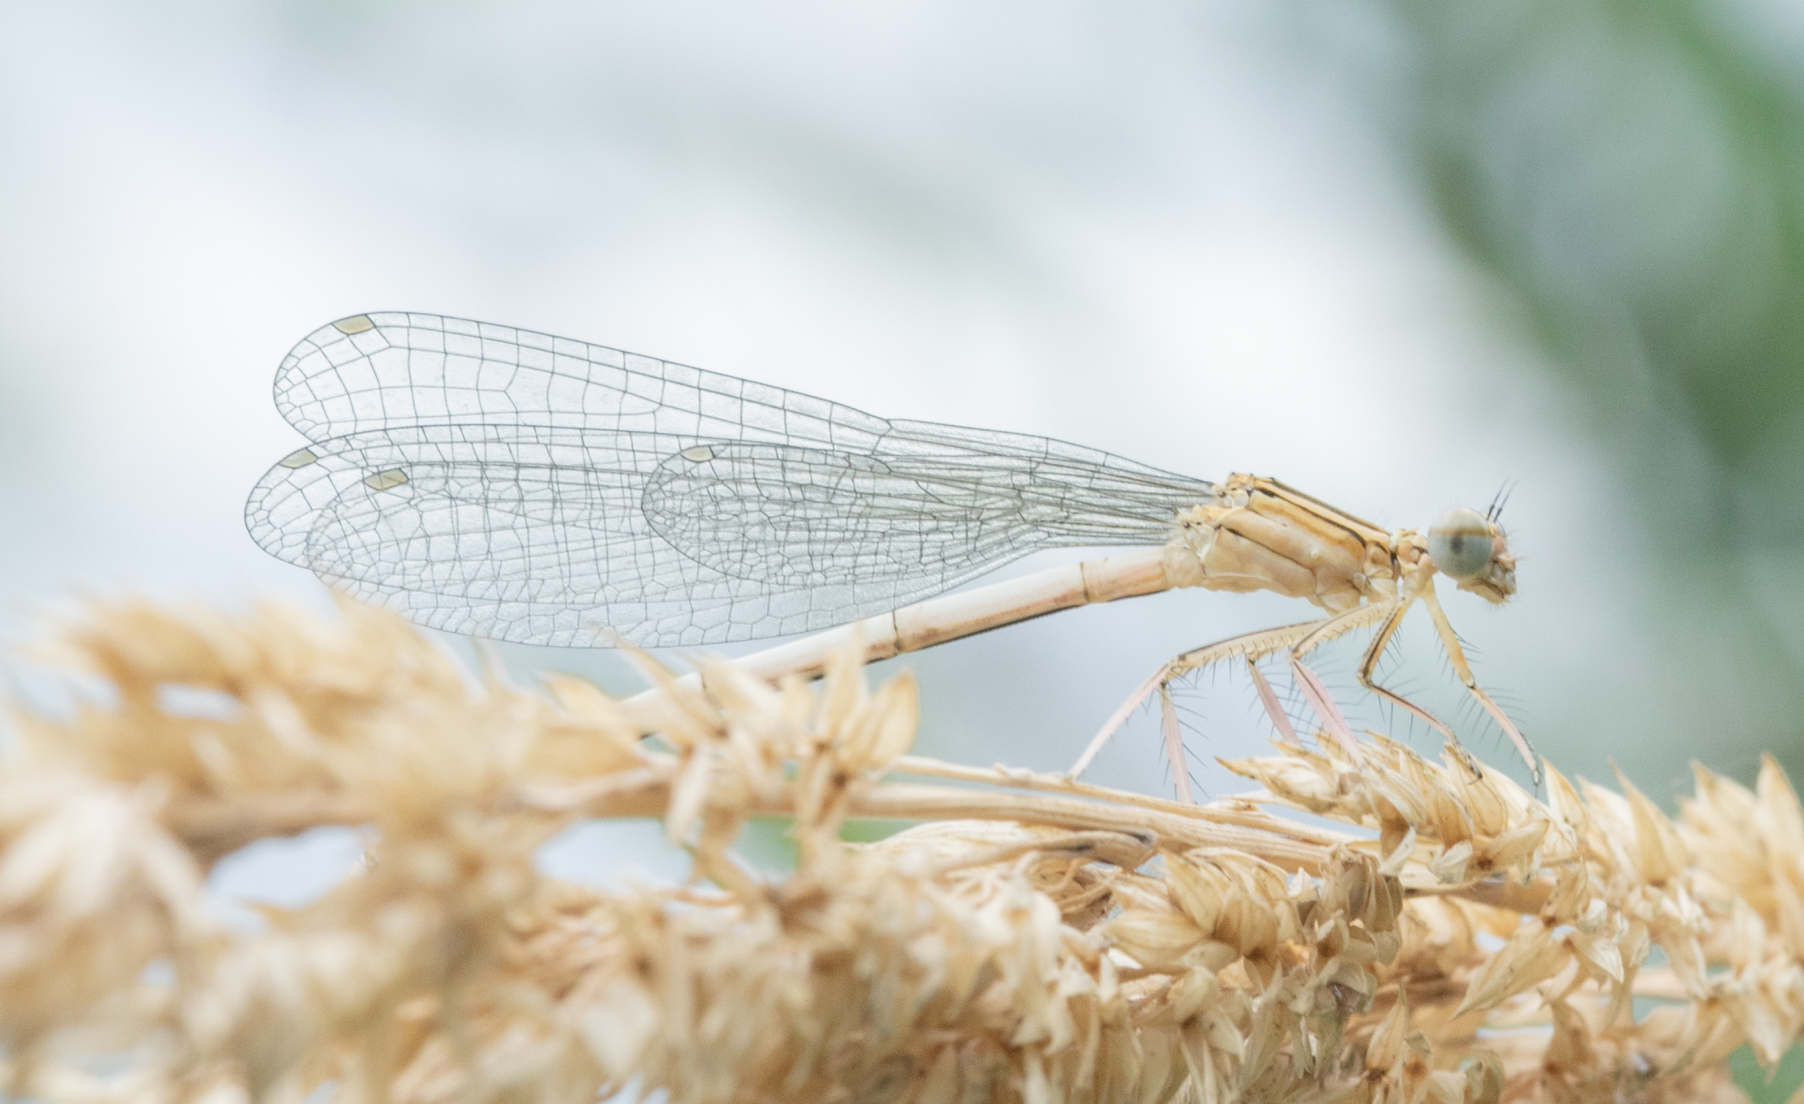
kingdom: Animalia
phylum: Arthropoda
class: Insecta
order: Odonata
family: Platycnemididae
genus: Platycnemis
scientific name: Platycnemis pennipes
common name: White-legged damselfly
